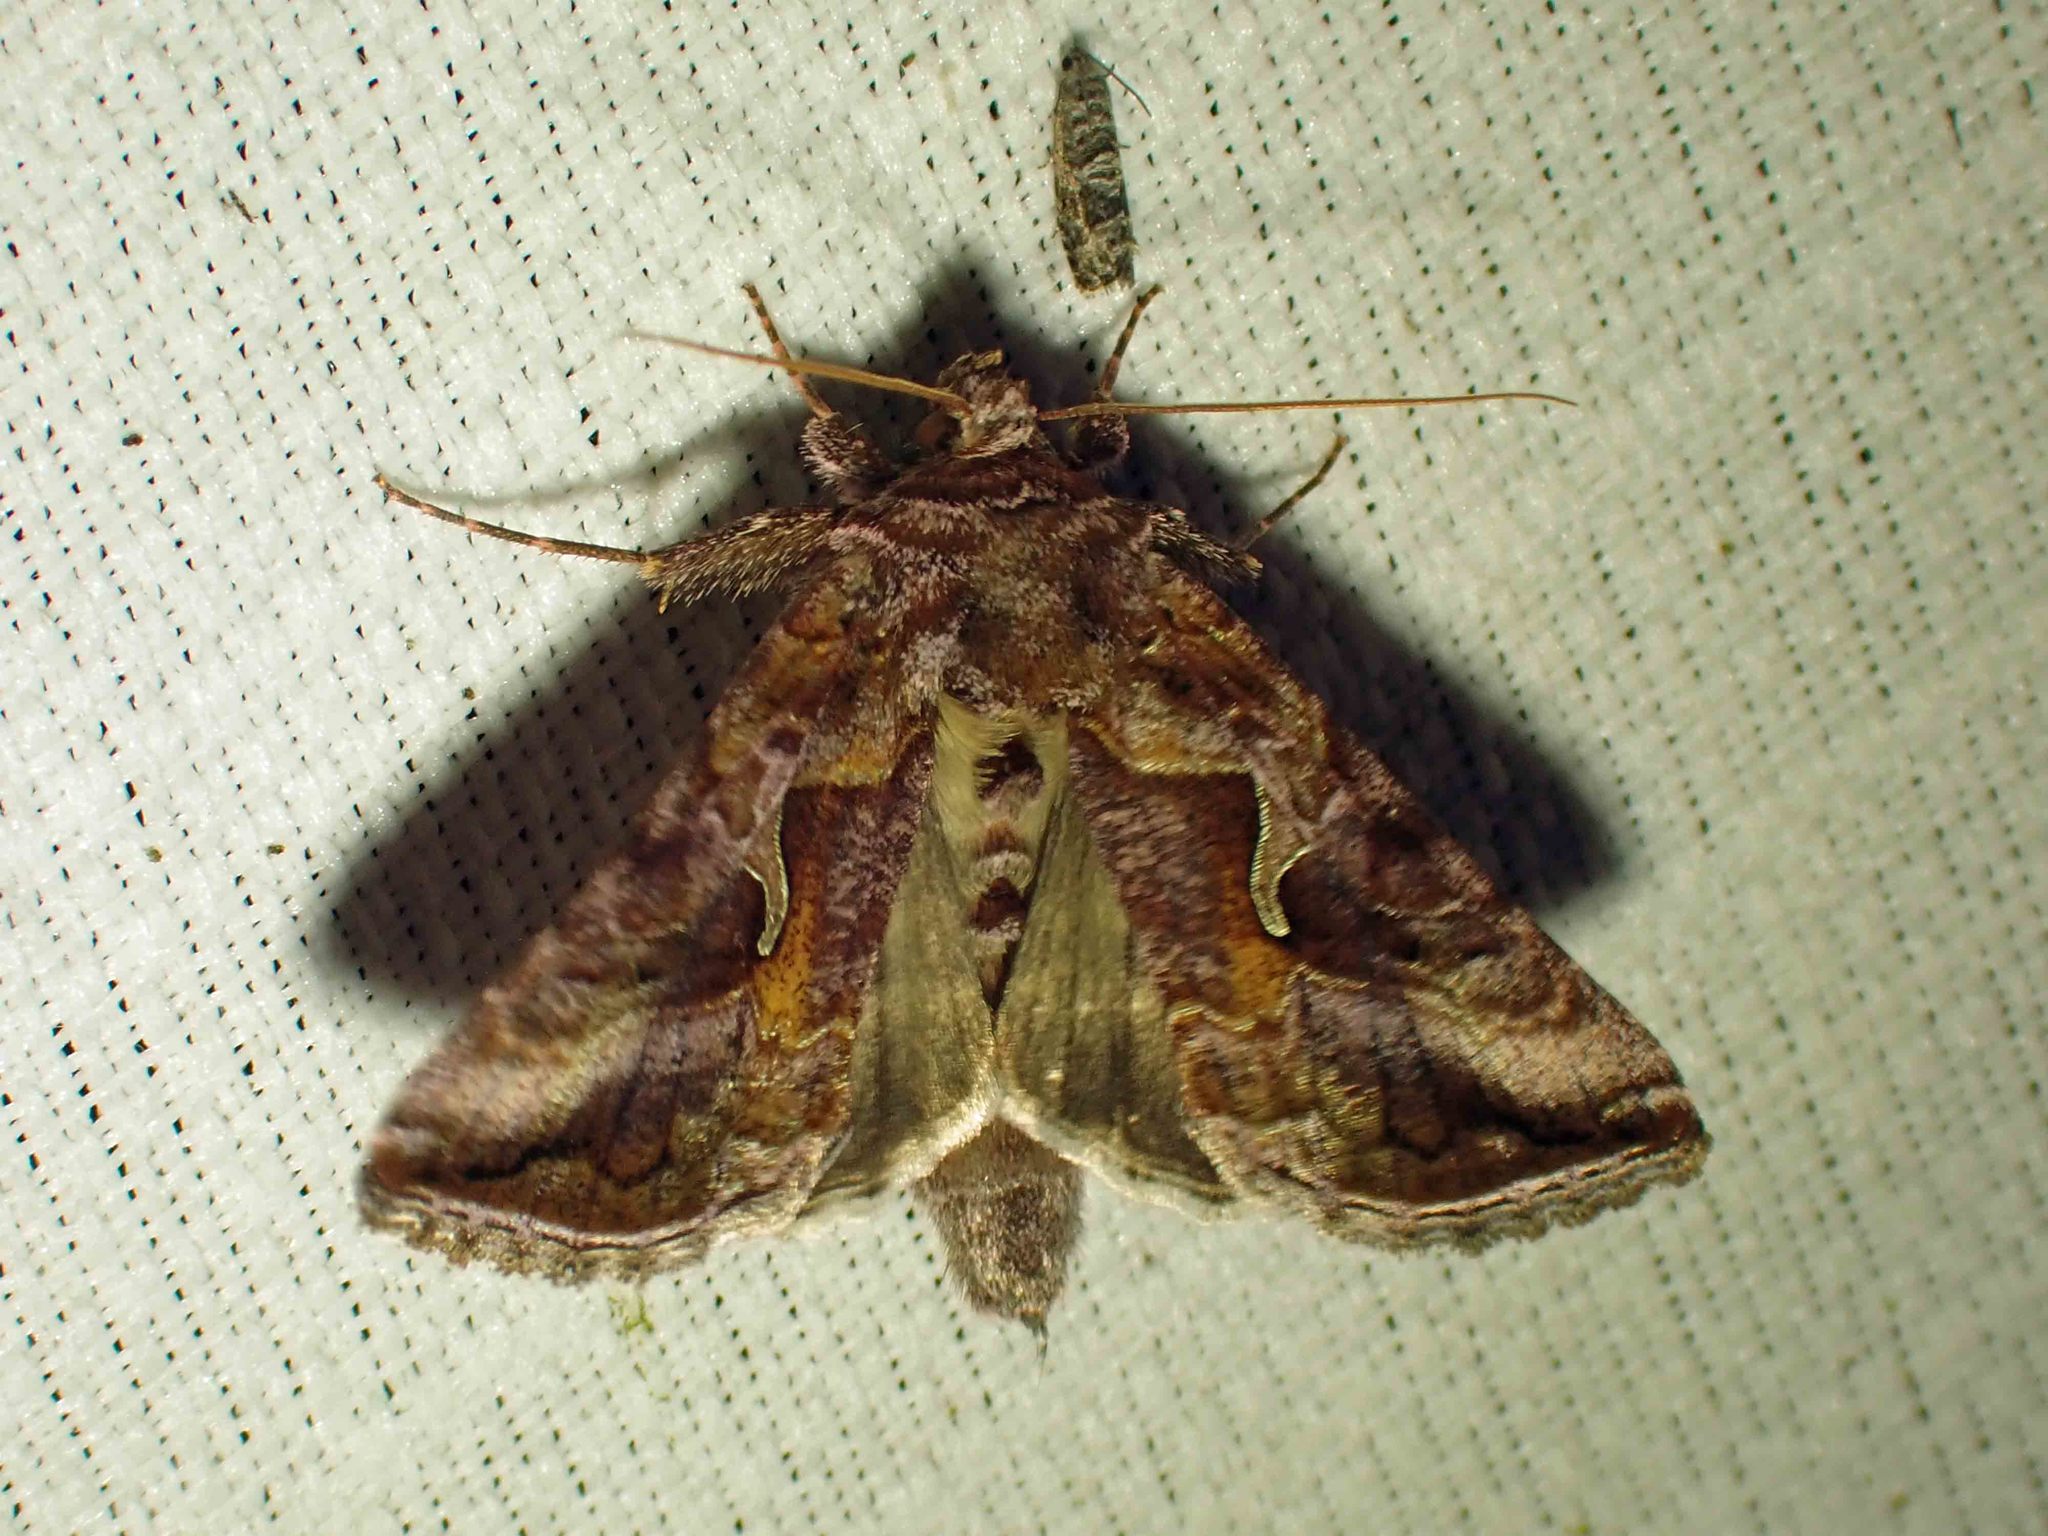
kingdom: Animalia
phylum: Arthropoda
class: Insecta
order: Lepidoptera
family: Noctuidae
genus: Autographa
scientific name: Autographa rubidus
